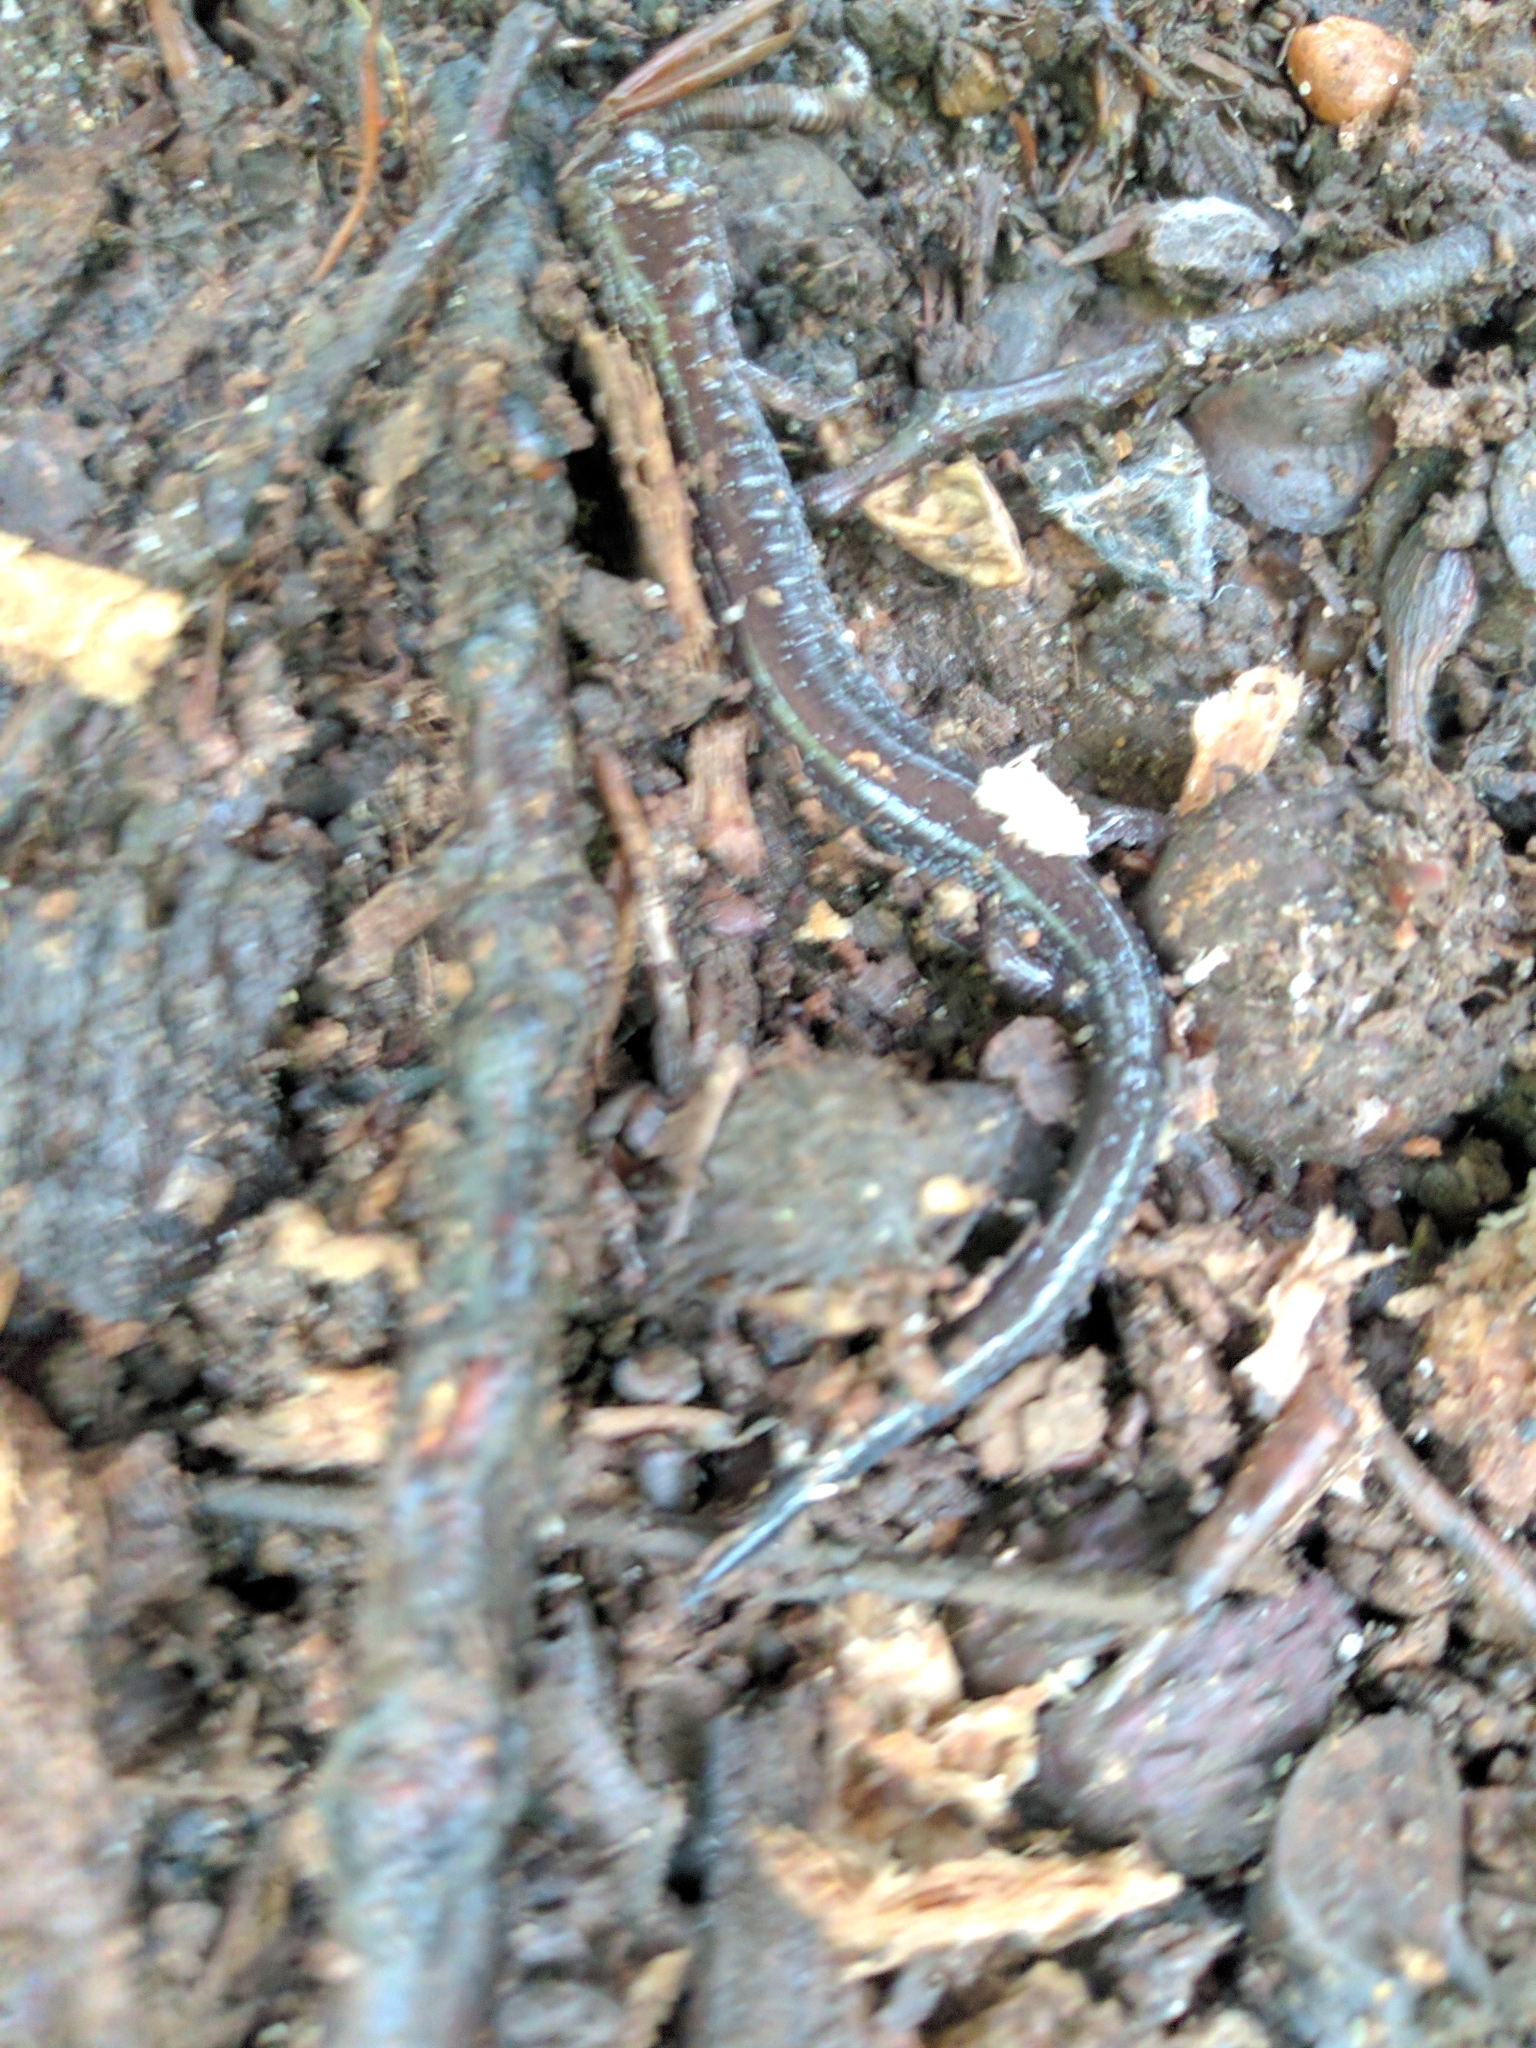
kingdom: Animalia
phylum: Chordata
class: Amphibia
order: Caudata
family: Plethodontidae
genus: Plethodon
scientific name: Plethodon cinereus
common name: Redback salamander
